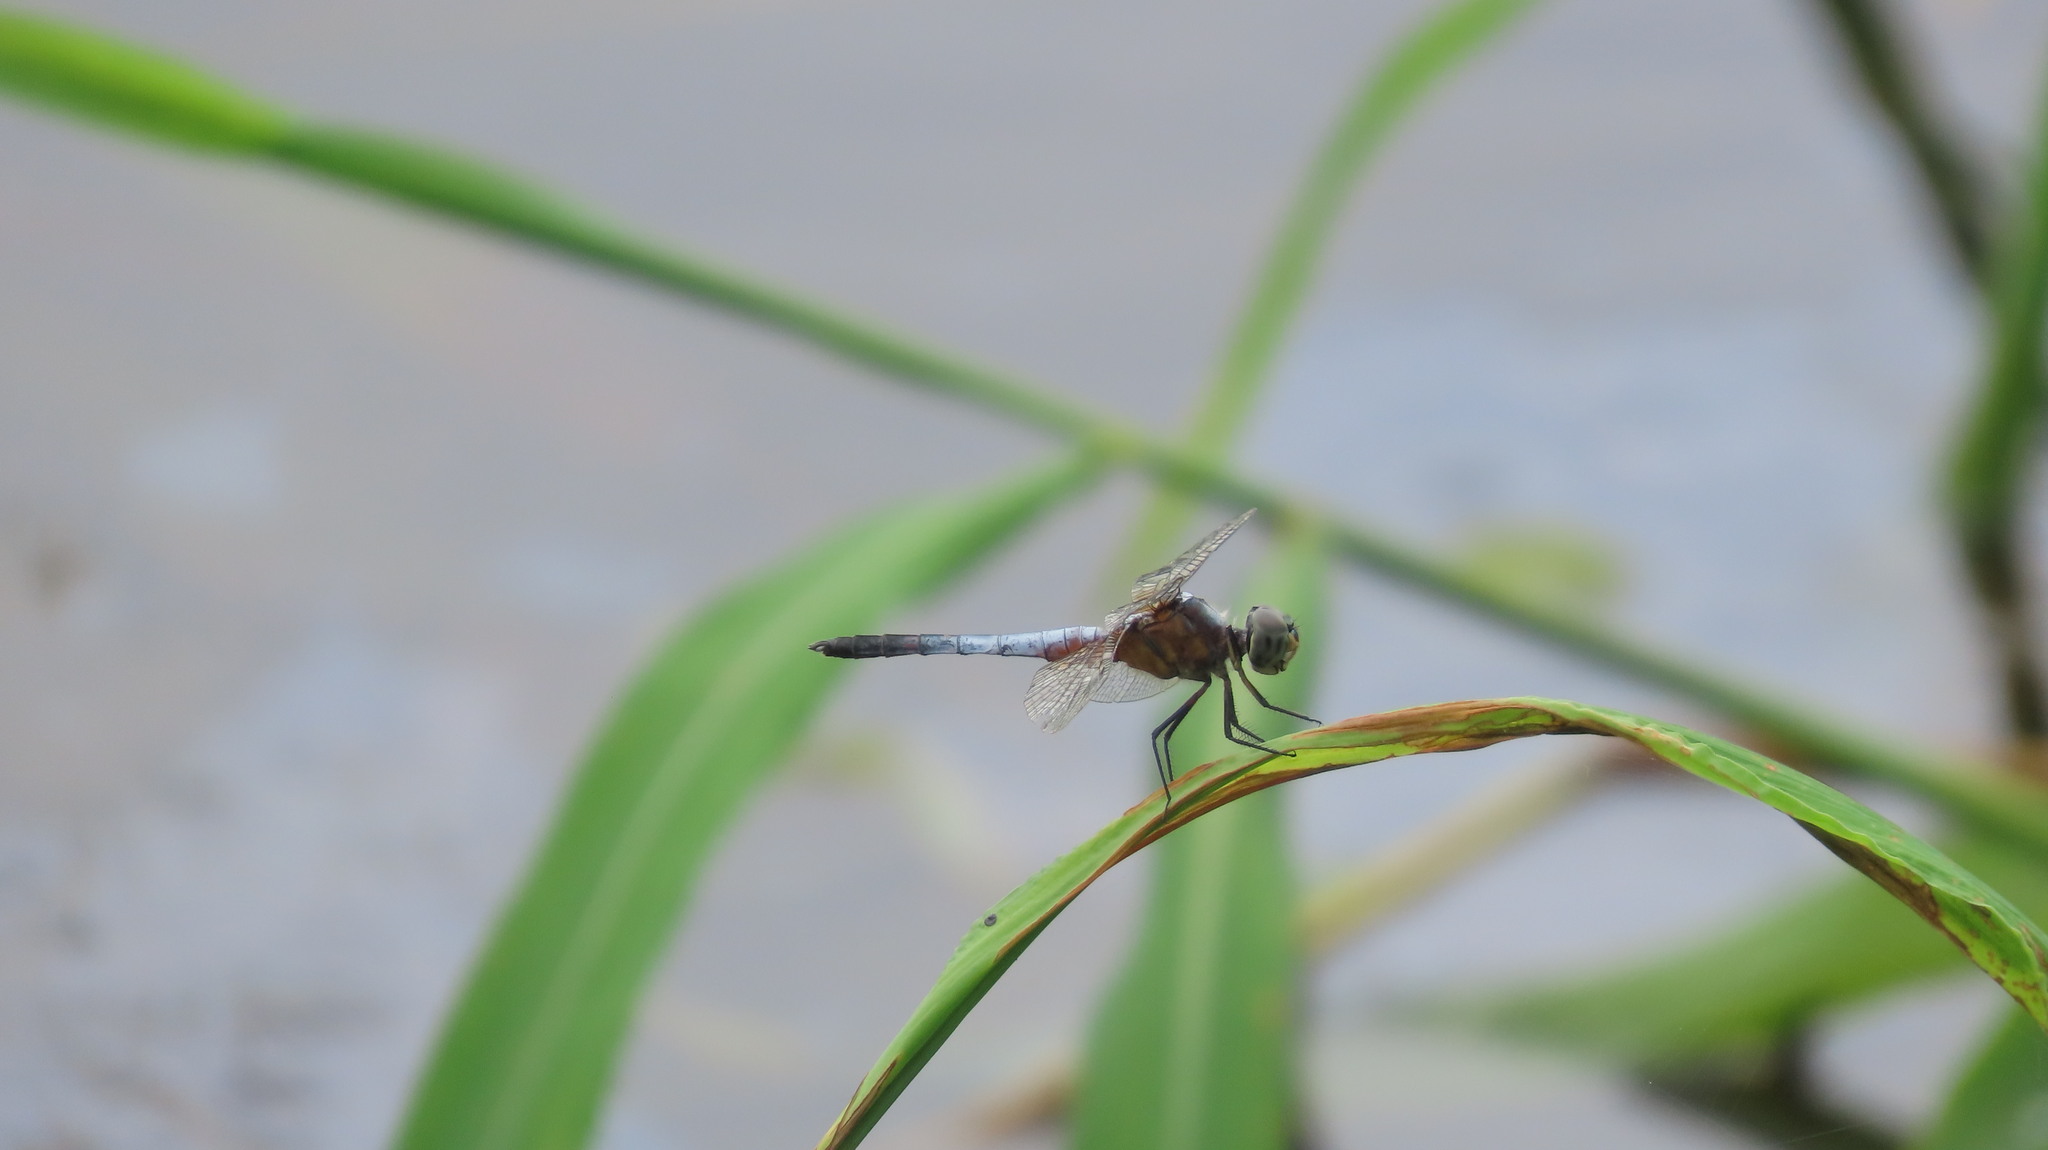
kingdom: Animalia
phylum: Arthropoda
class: Insecta
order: Odonata
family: Libellulidae
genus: Brachydiplax
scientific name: Brachydiplax chalybea
